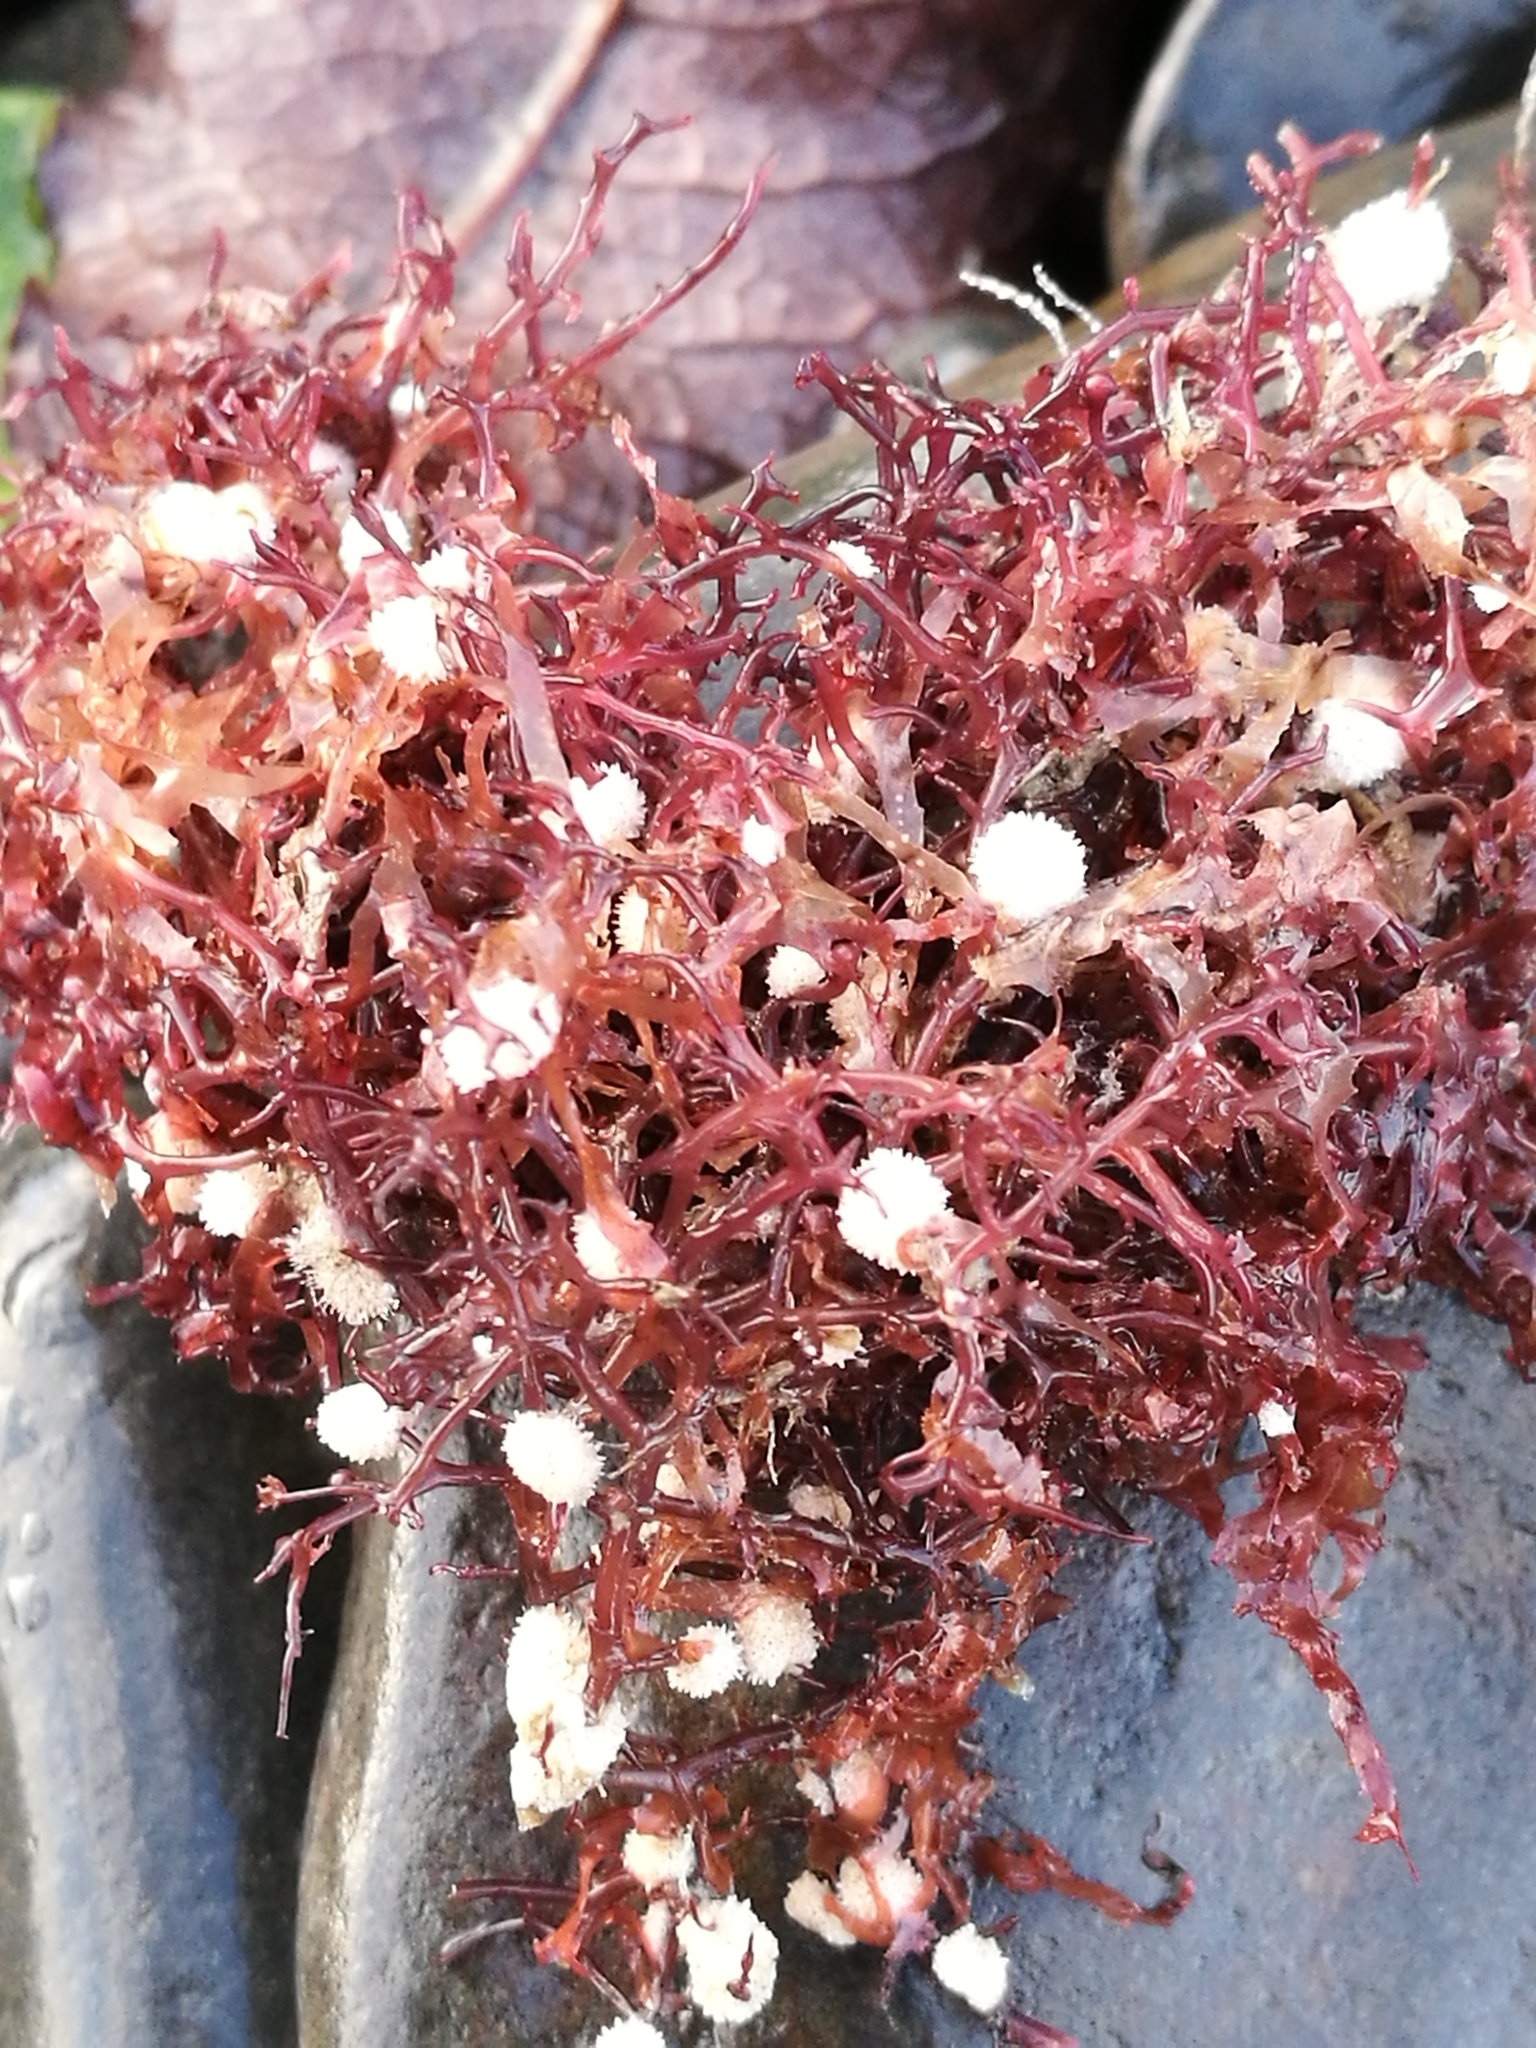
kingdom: Animalia
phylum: Bryozoa
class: Gymnolaemata
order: Cheilostomatida
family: Celleporidae
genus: Celleporina
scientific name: Celleporina proximalis
